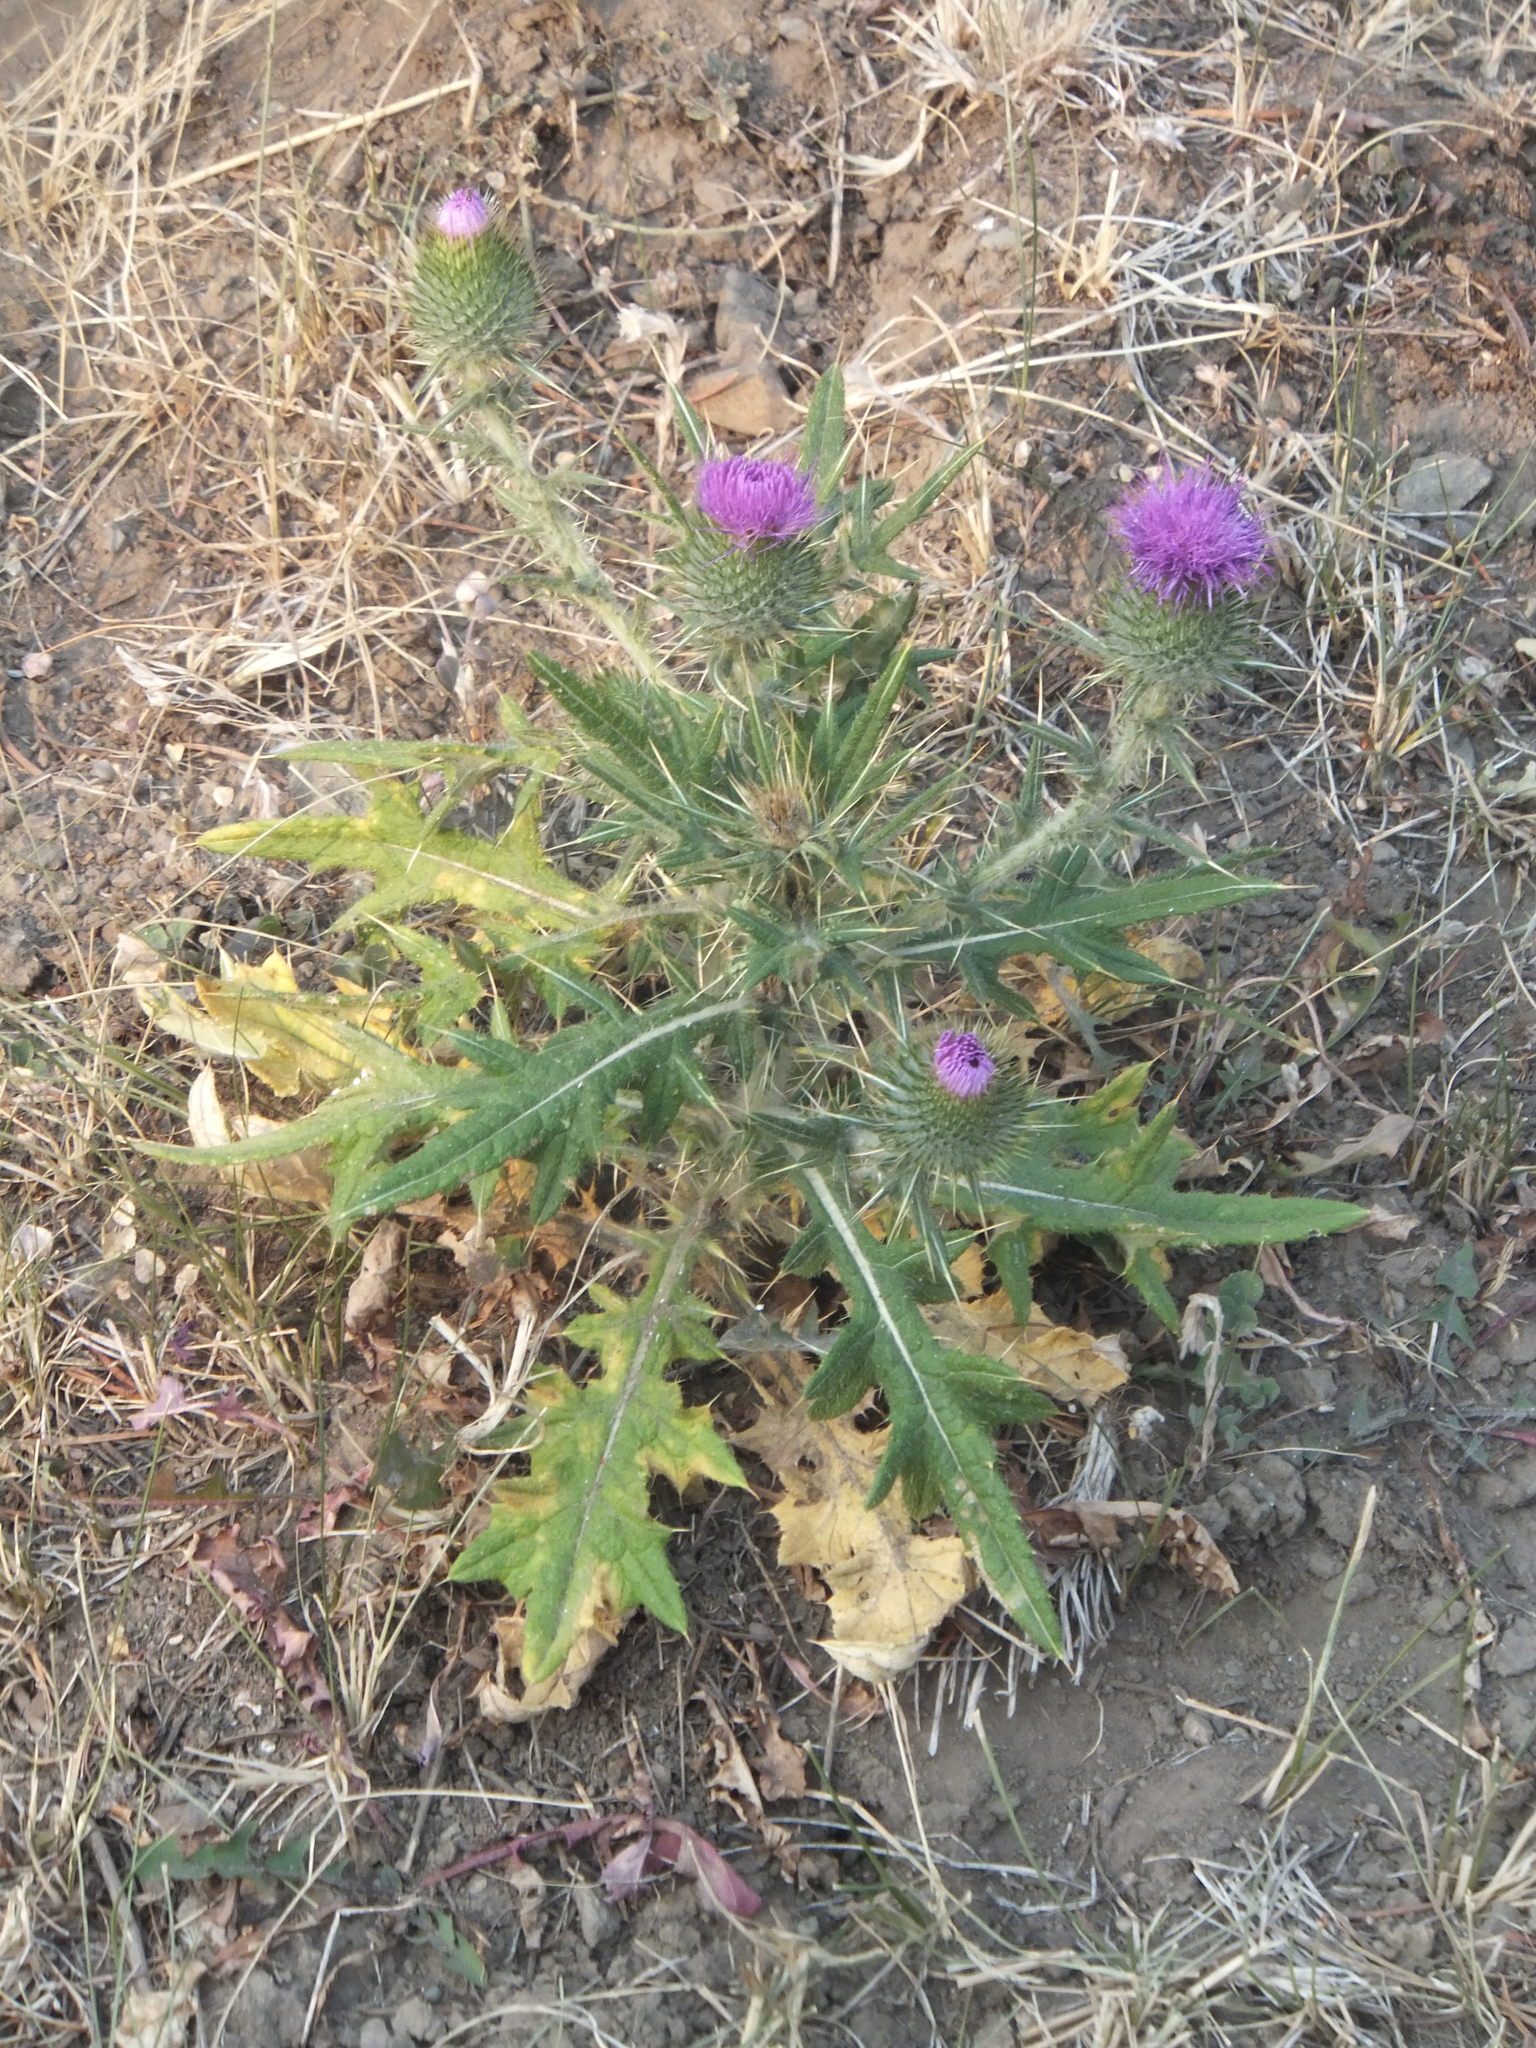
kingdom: Plantae
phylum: Tracheophyta
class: Magnoliopsida
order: Asterales
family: Asteraceae
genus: Cirsium
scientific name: Cirsium vulgare
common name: Bull thistle
